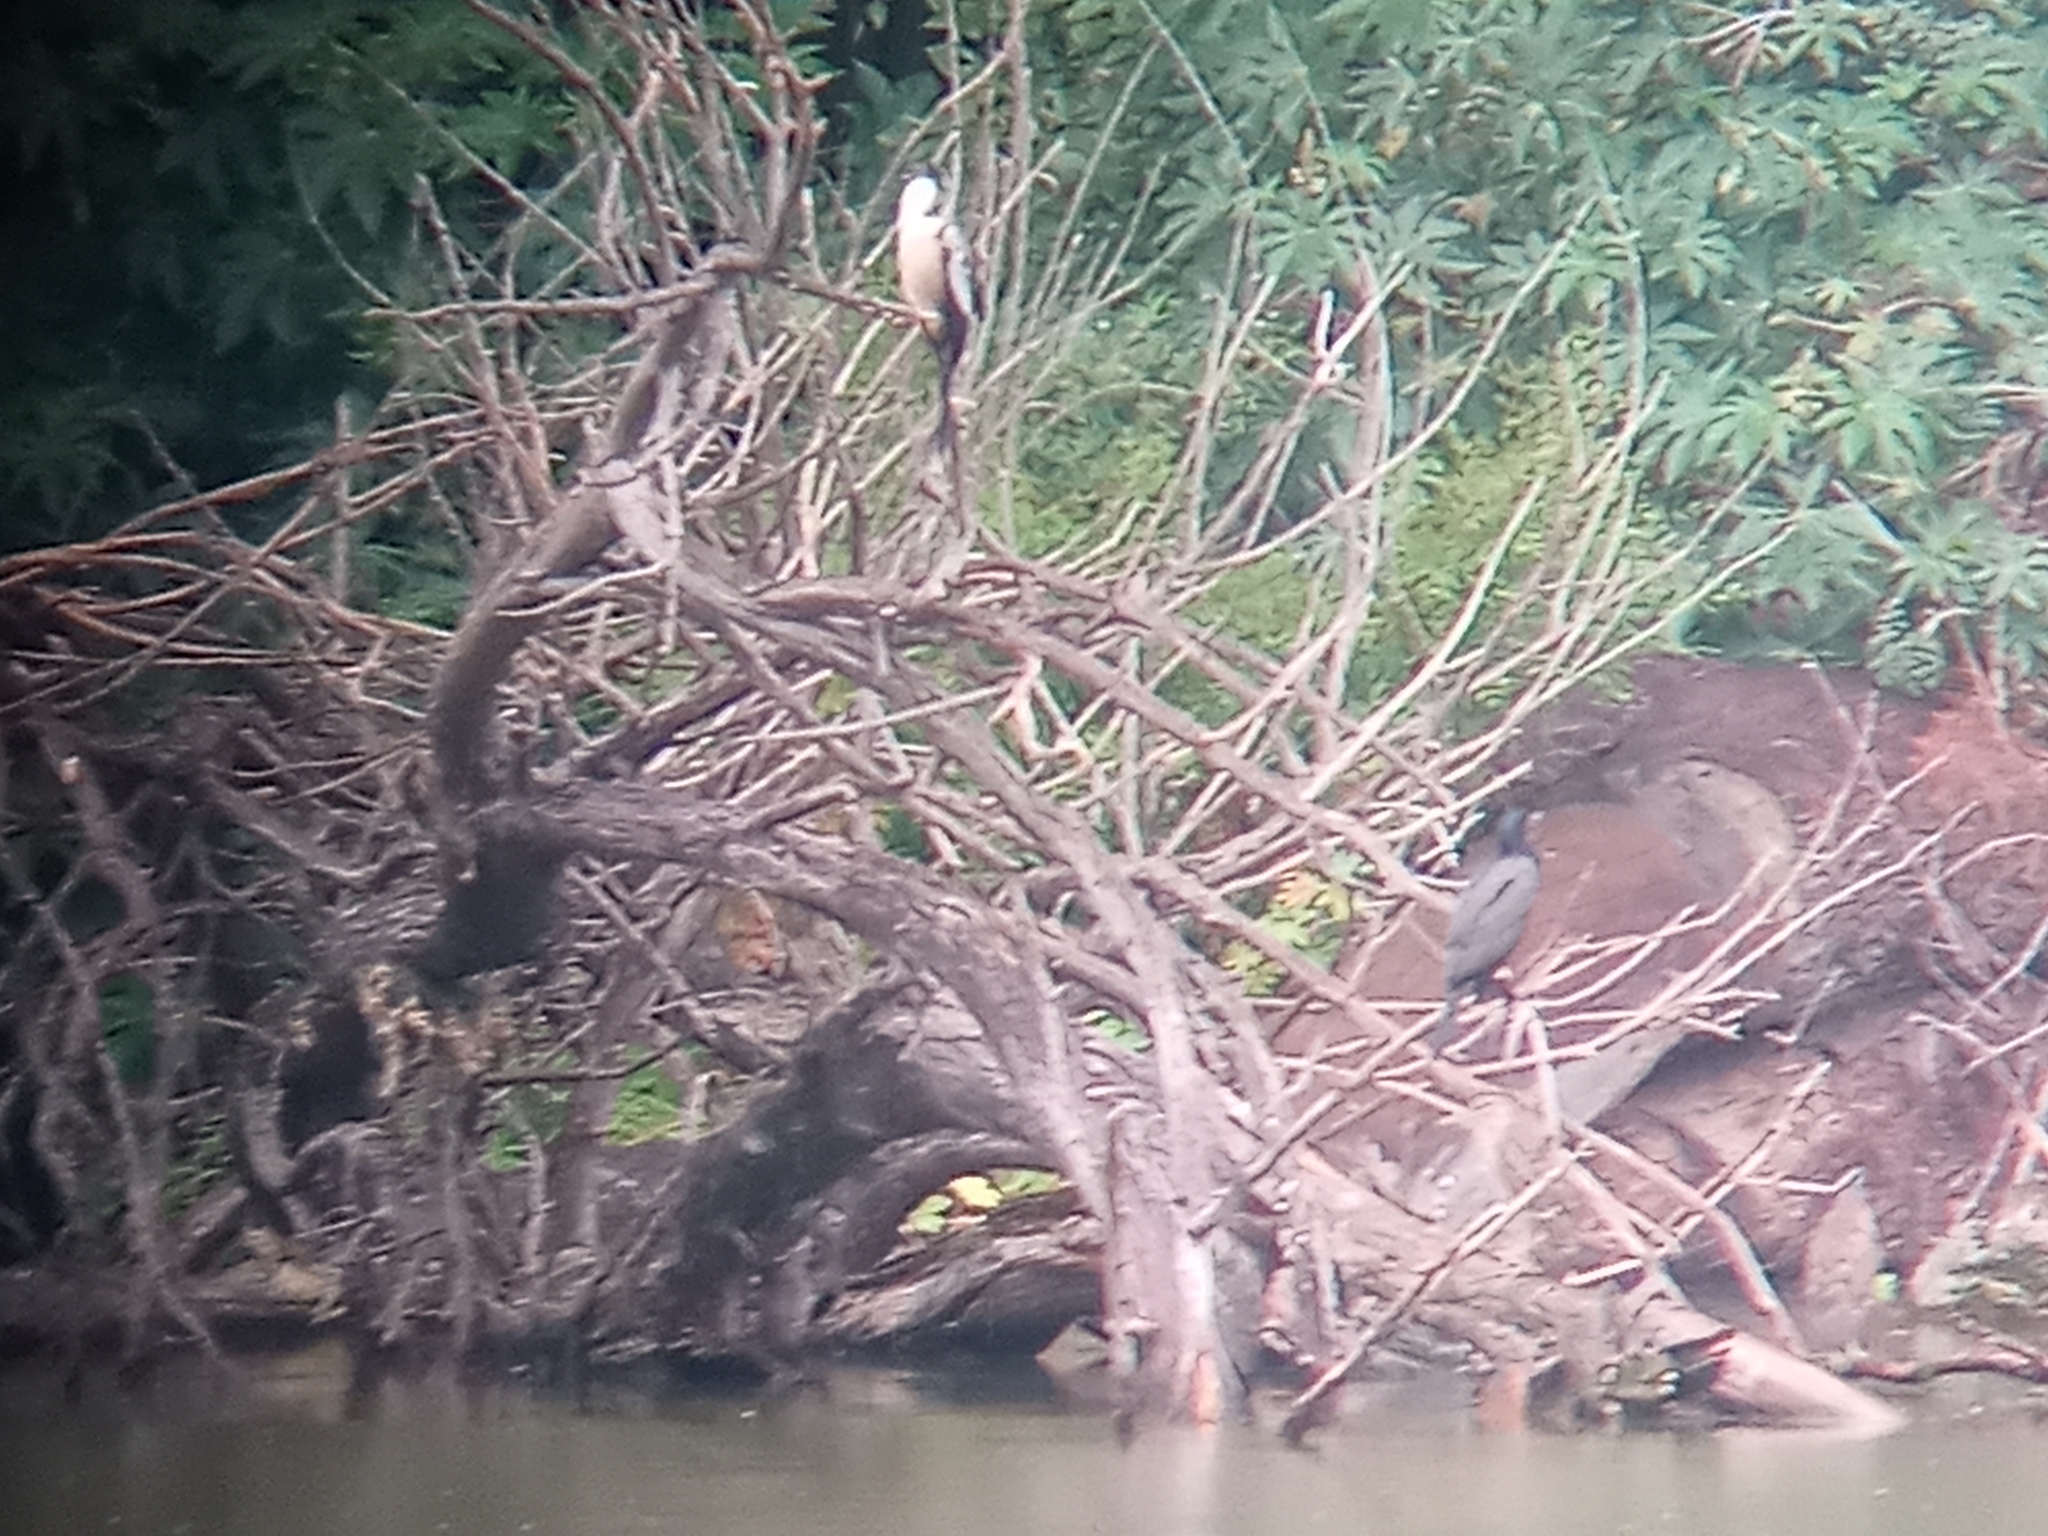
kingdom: Animalia
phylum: Chordata
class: Aves
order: Suliformes
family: Anhingidae
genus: Anhinga
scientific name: Anhinga anhinga
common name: Anhinga
